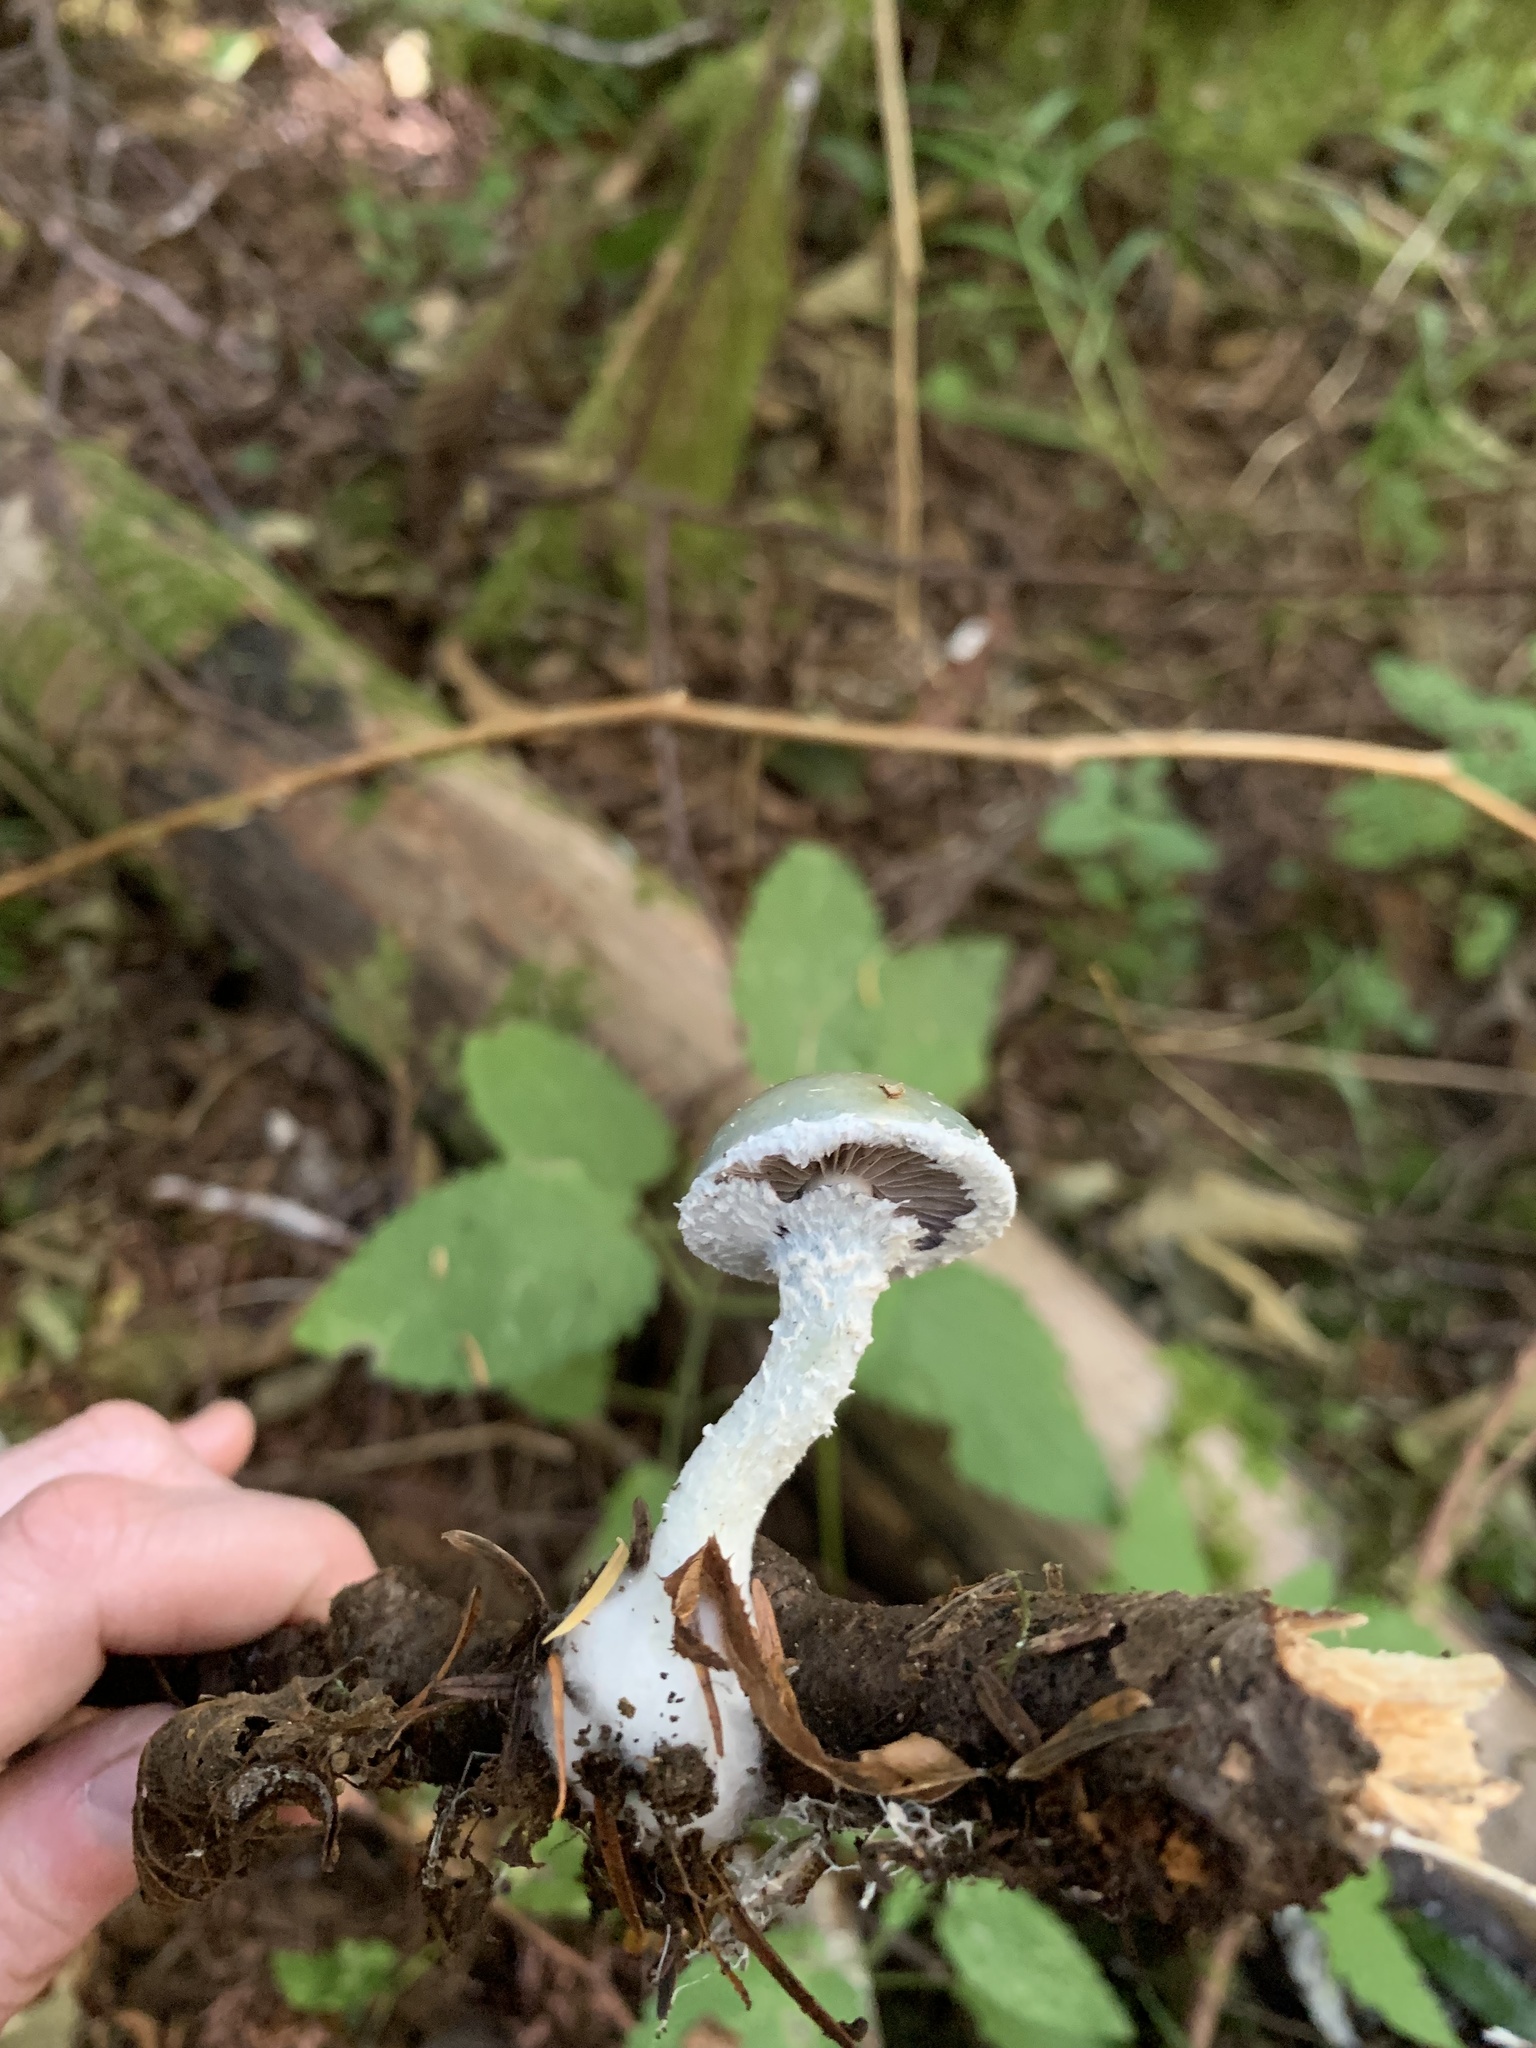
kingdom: Fungi
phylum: Basidiomycota
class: Agaricomycetes
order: Agaricales
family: Strophariaceae
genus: Stropharia
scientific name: Stropharia aeruginosa
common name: Verdigris roundhead
